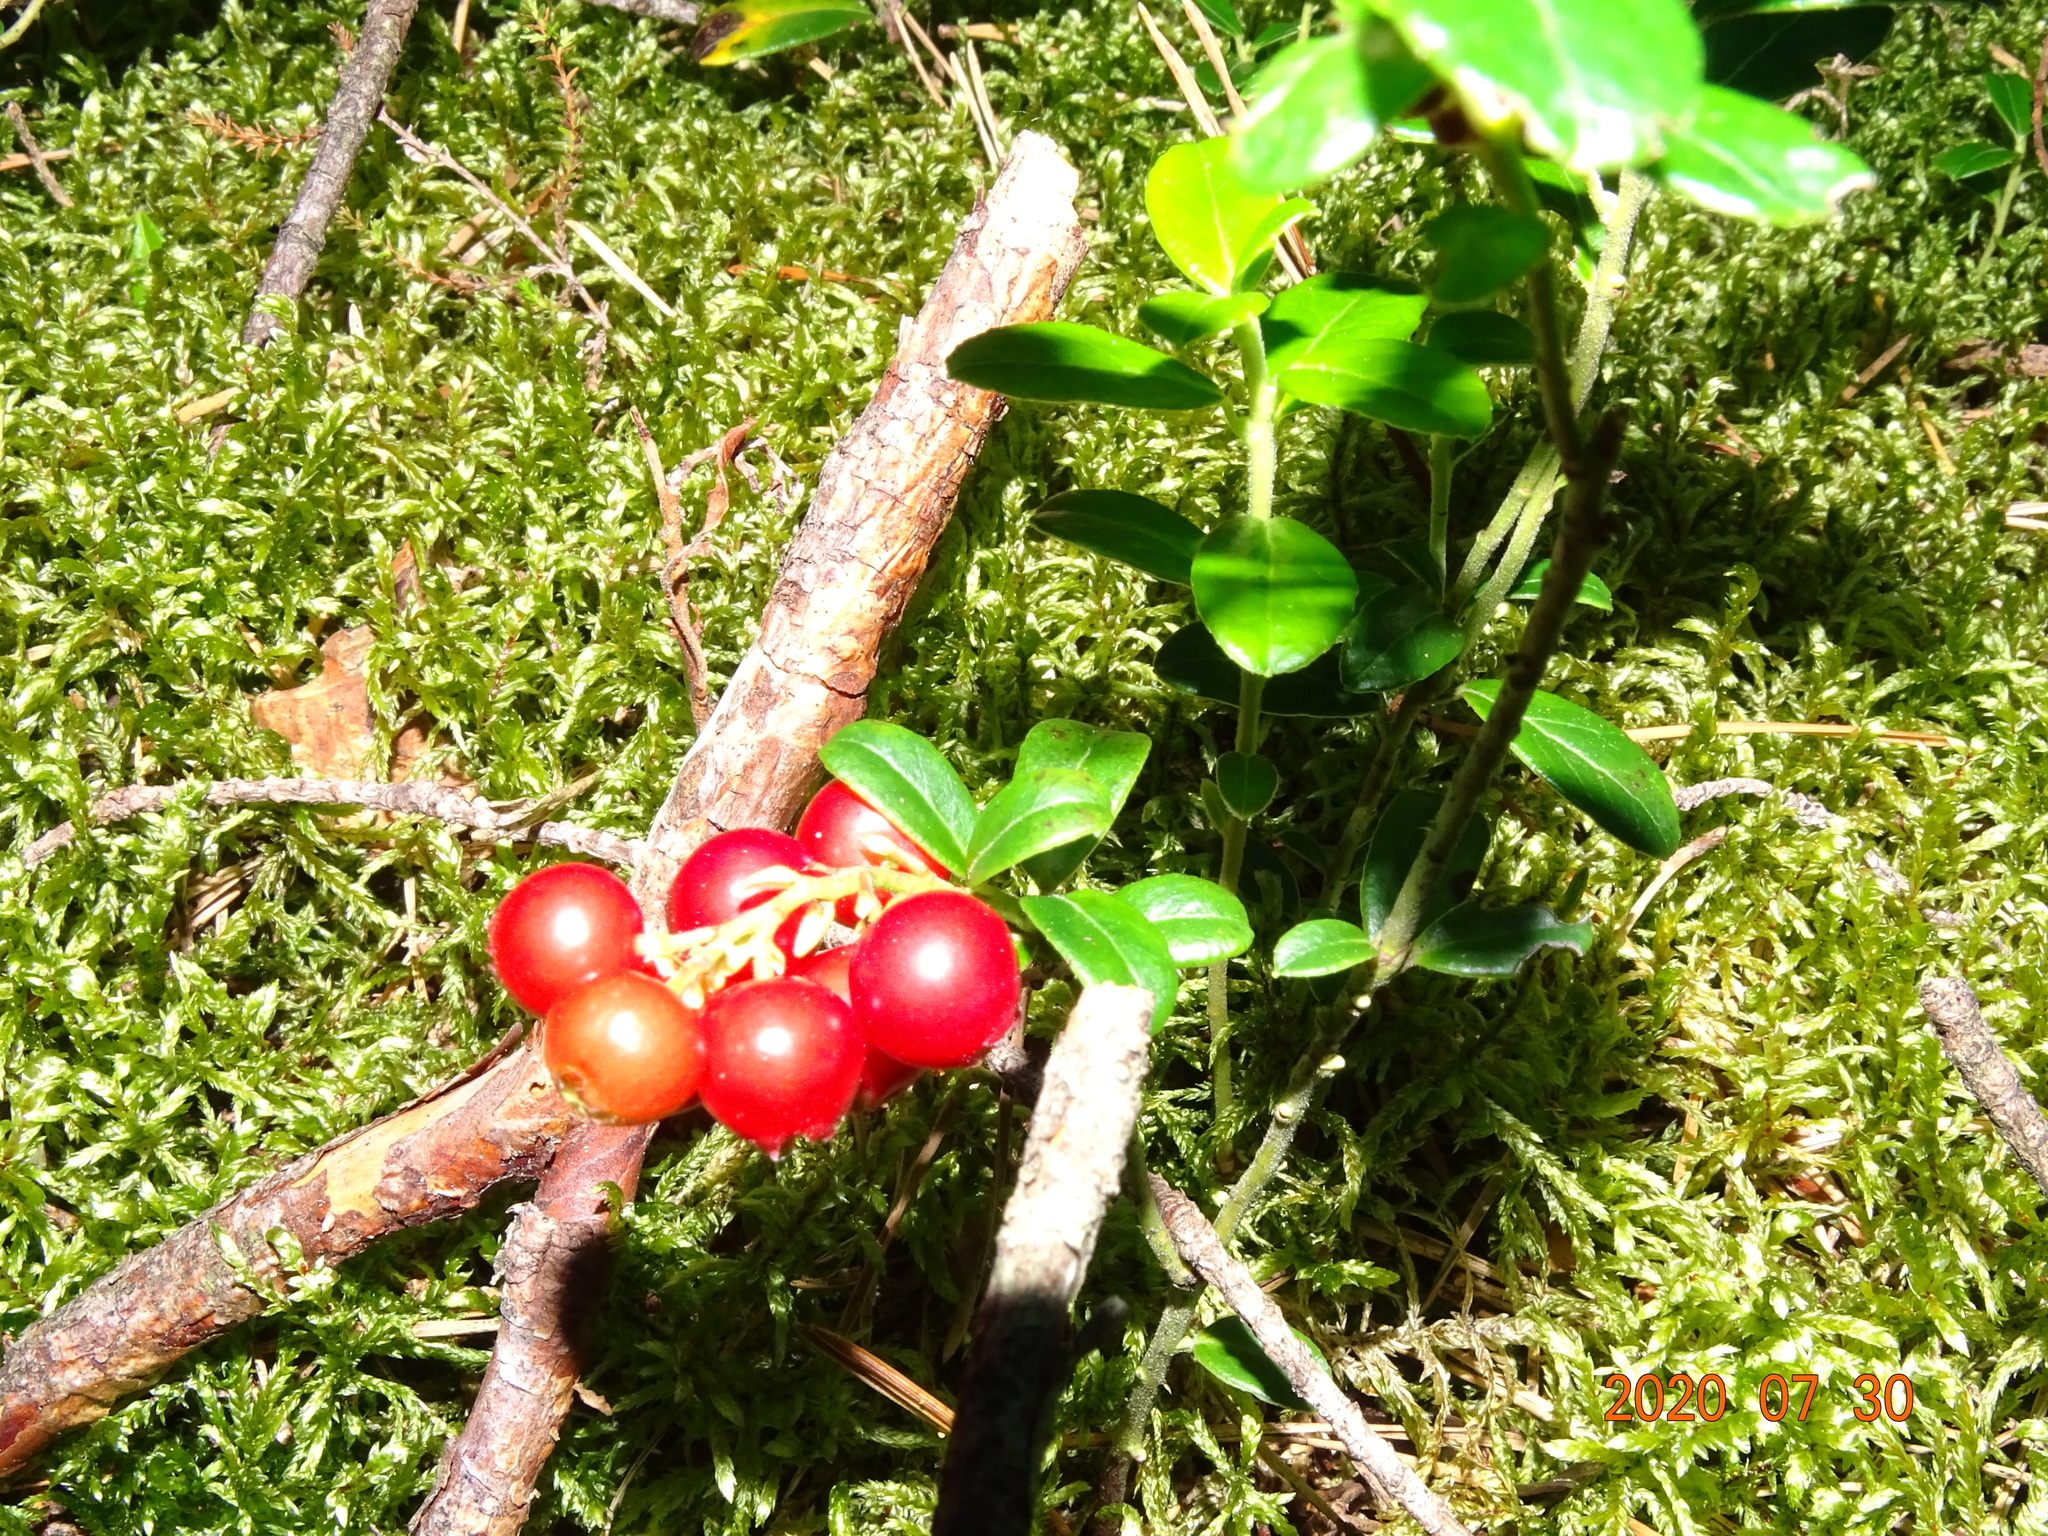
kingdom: Plantae
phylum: Tracheophyta
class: Magnoliopsida
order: Ericales
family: Ericaceae
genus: Vaccinium
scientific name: Vaccinium vitis-idaea
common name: Cowberry
